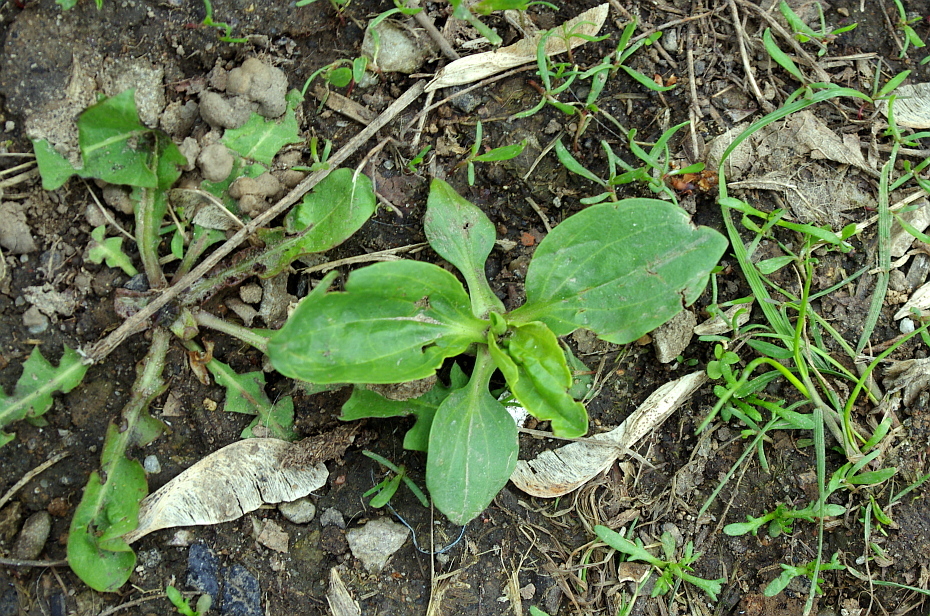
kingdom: Plantae
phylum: Tracheophyta
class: Magnoliopsida
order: Lamiales
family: Plantaginaceae
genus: Plantago
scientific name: Plantago major
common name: Common plantain
